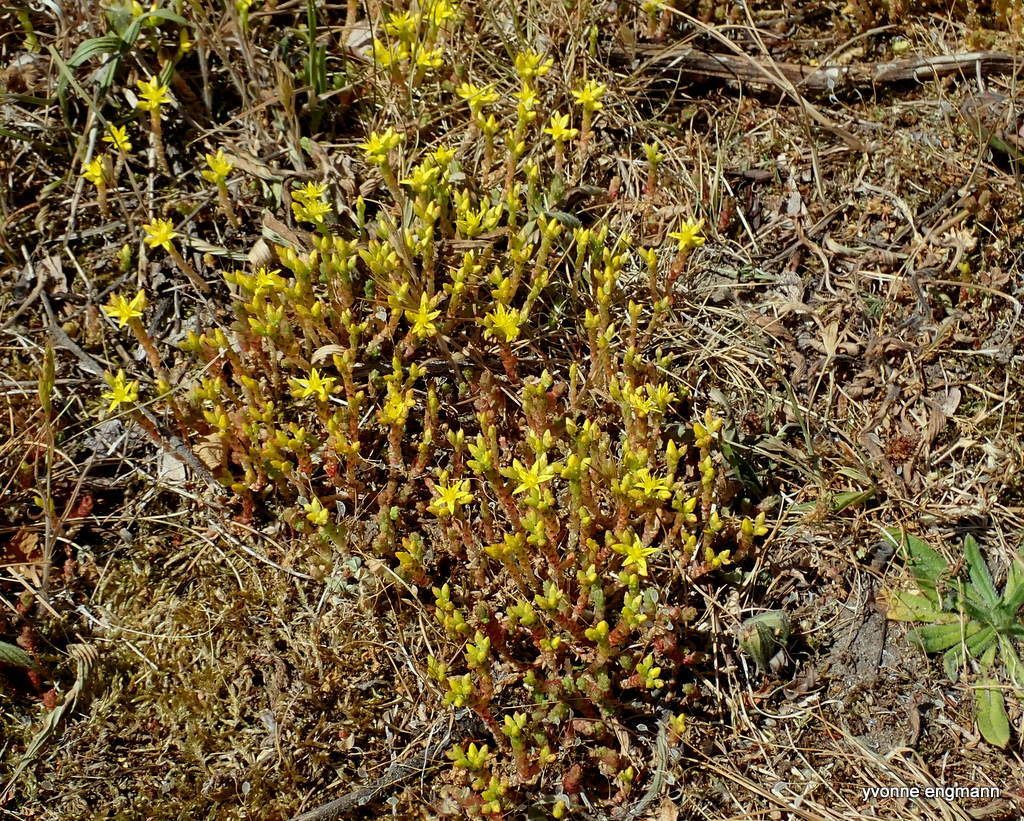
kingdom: Plantae
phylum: Tracheophyta
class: Magnoliopsida
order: Saxifragales
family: Crassulaceae
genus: Sedum
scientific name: Sedum acre
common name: Biting stonecrop
